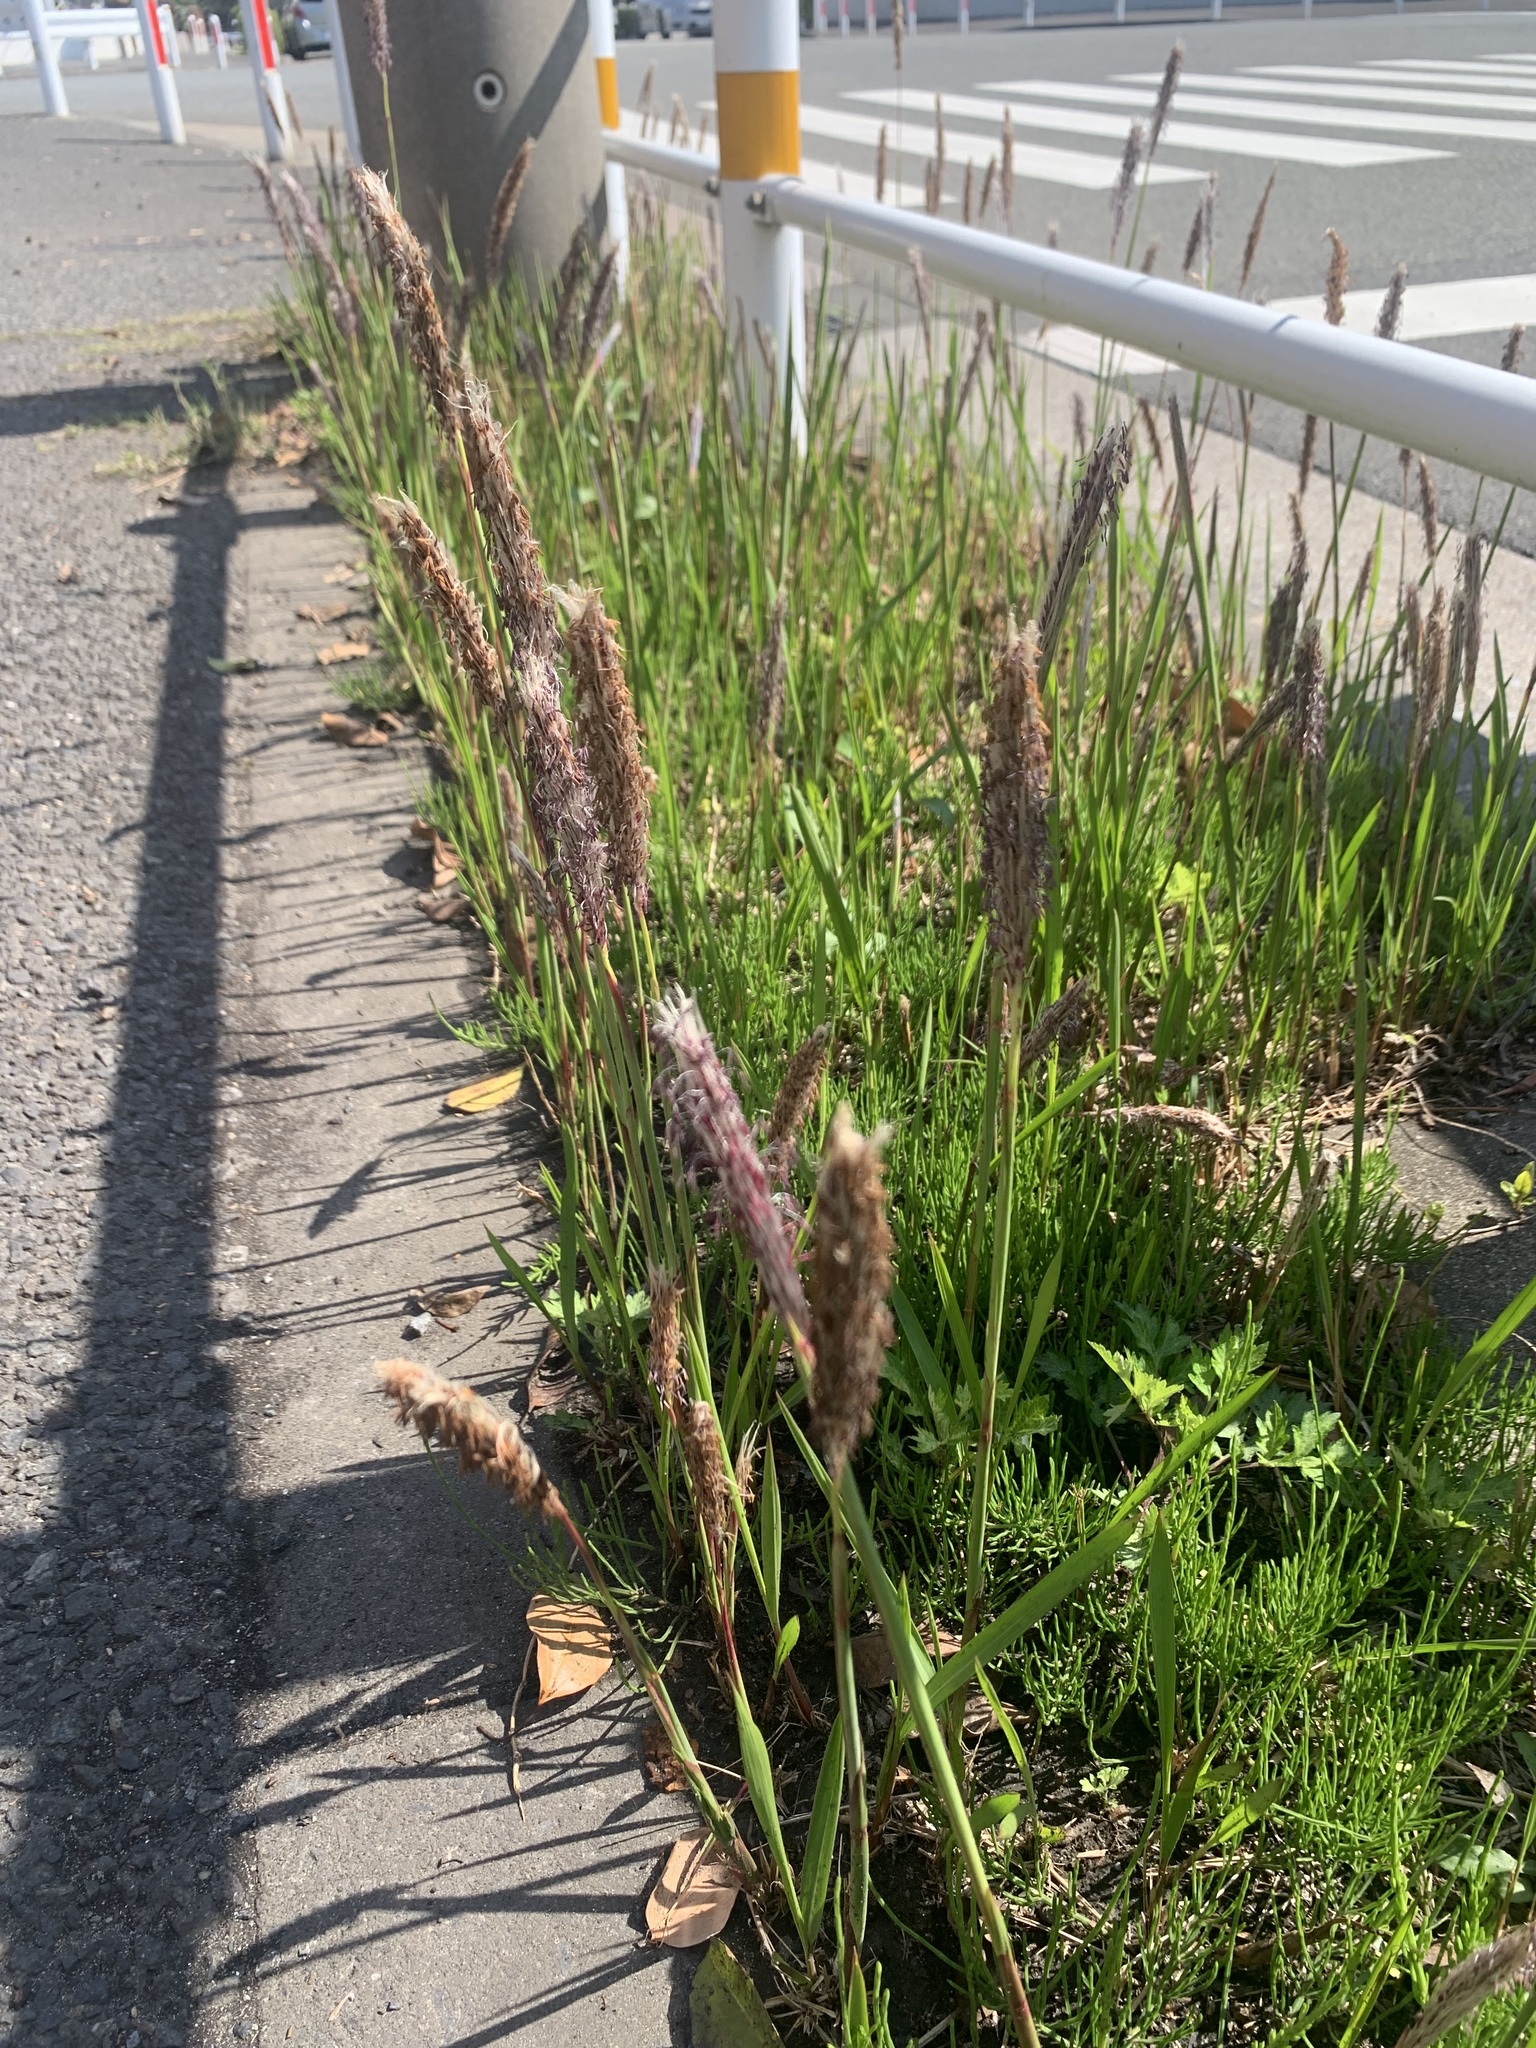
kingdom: Plantae
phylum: Tracheophyta
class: Liliopsida
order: Poales
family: Poaceae
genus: Imperata
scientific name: Imperata cylindrica
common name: Cogongrass
